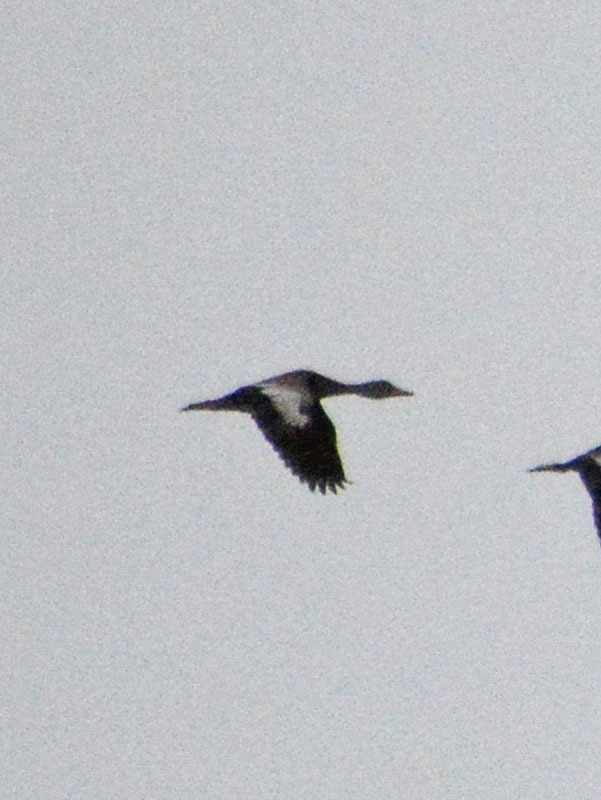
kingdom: Animalia
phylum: Chordata
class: Aves
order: Anseriformes
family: Anatidae
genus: Dendrocygna
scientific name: Dendrocygna autumnalis
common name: Black-bellied whistling duck
